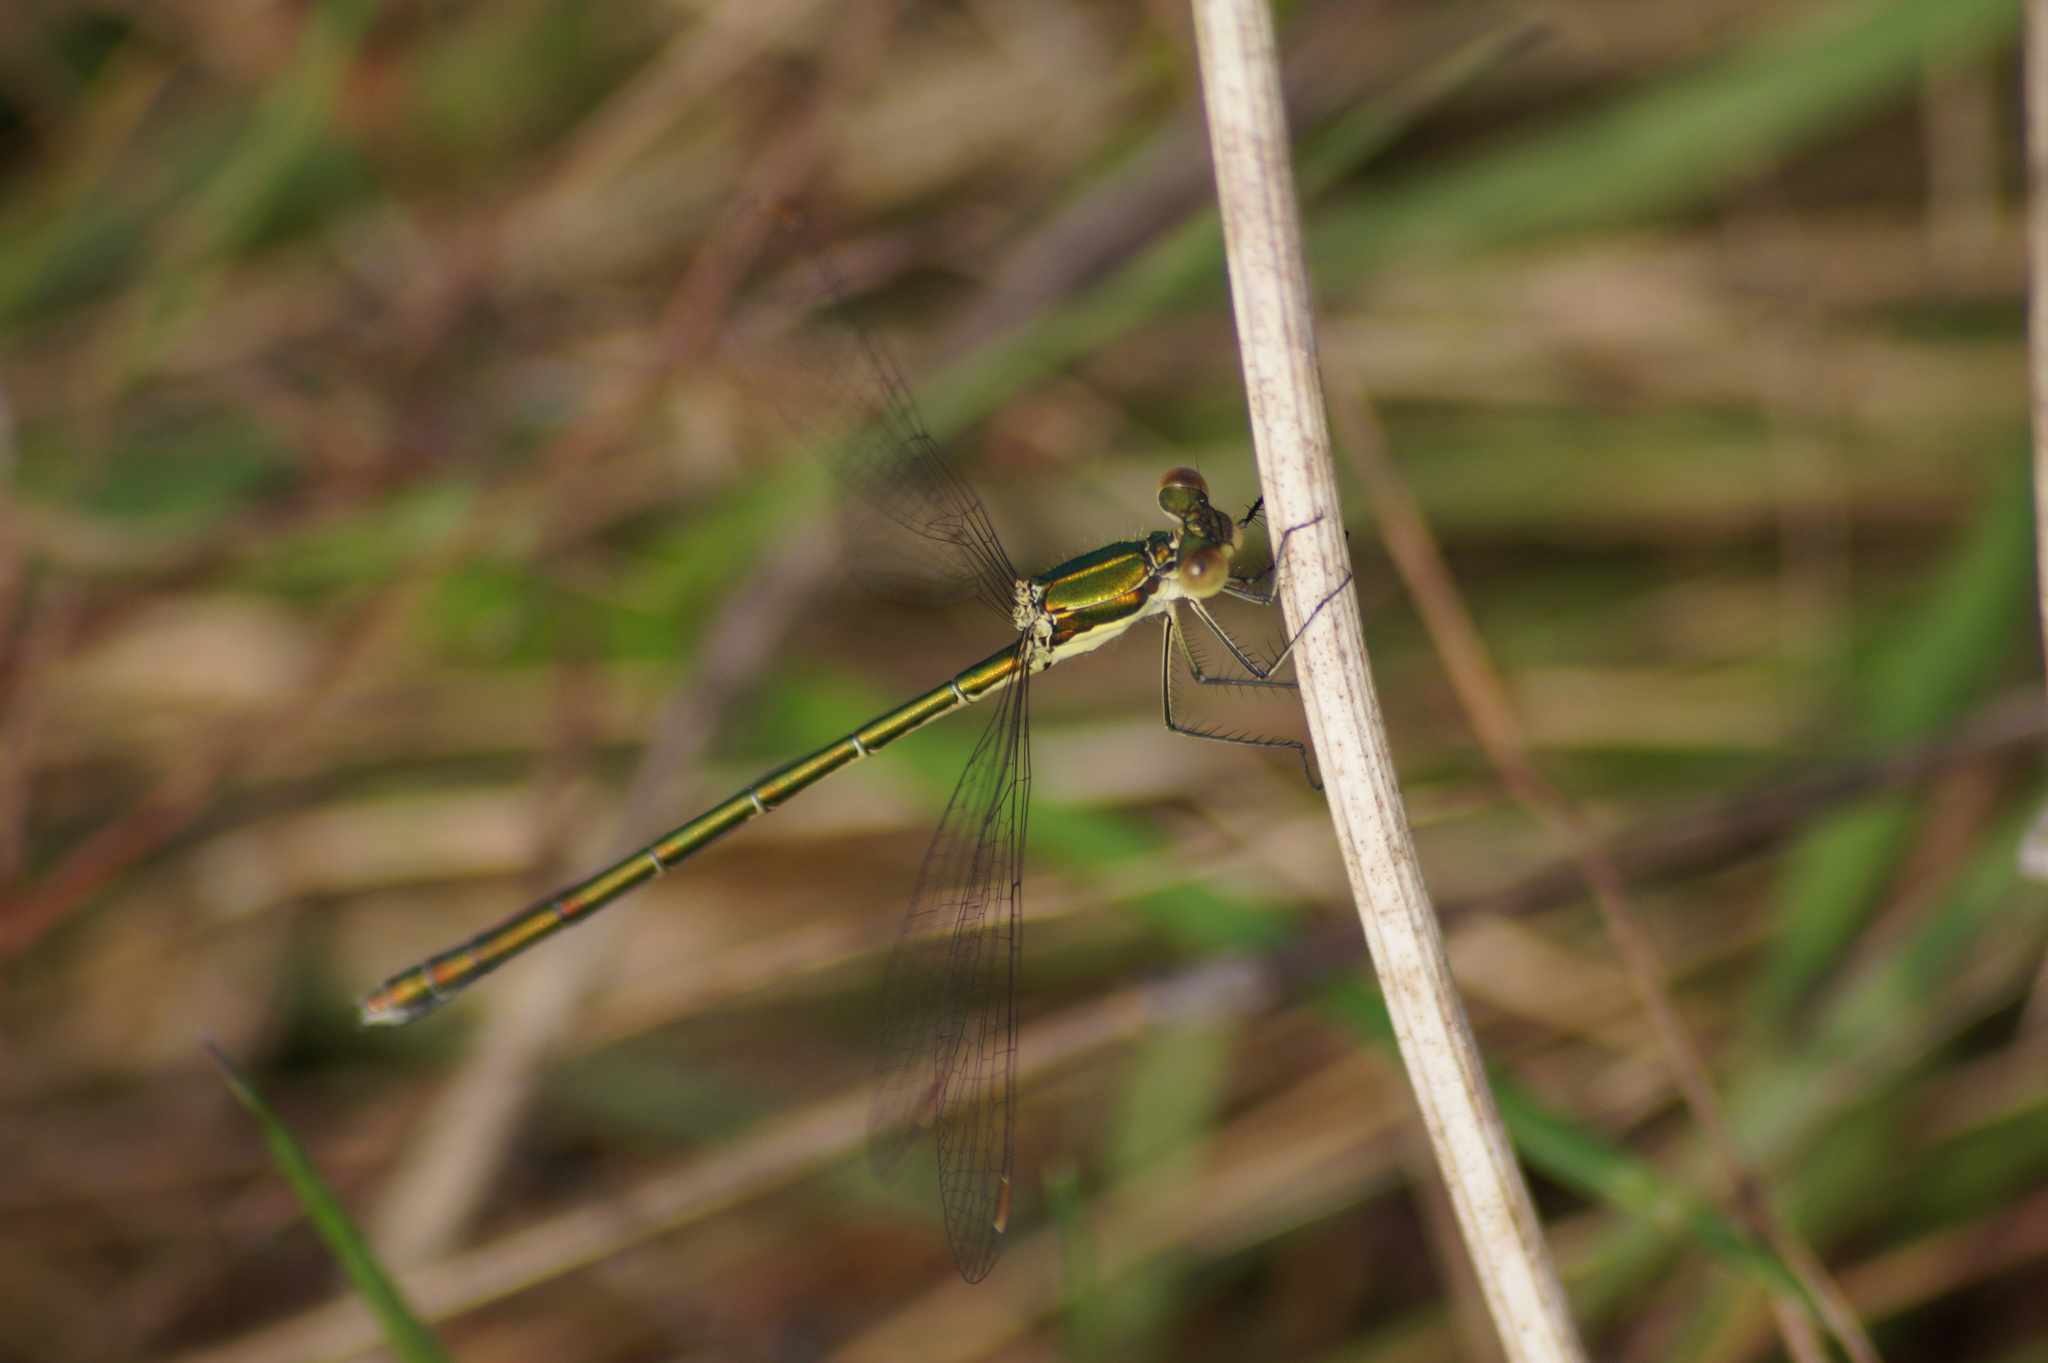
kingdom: Animalia
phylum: Arthropoda
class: Insecta
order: Odonata
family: Lestidae
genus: Lestes
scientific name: Lestes virens
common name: Small emerald spreadwing
